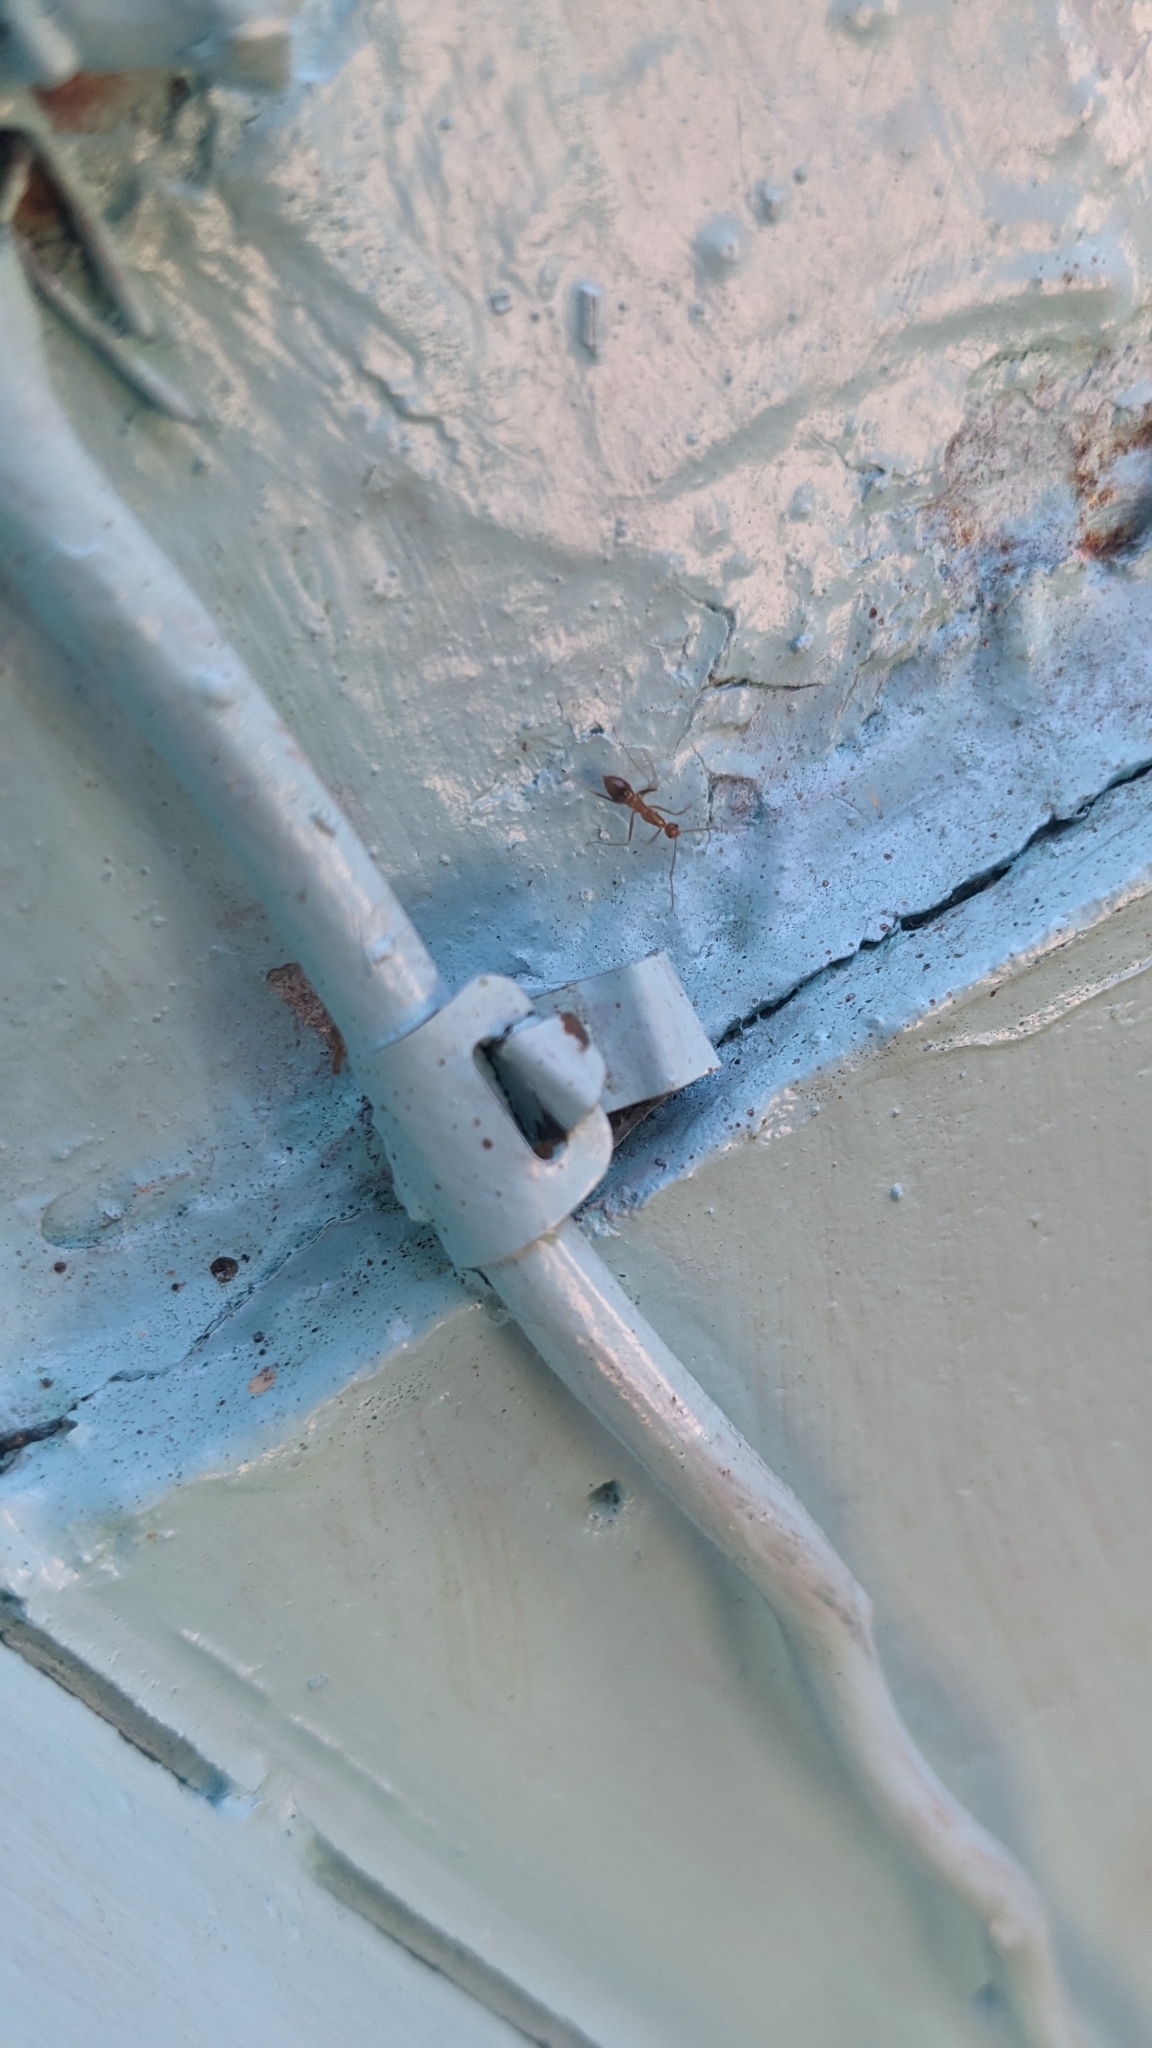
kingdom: Animalia
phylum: Arthropoda
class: Insecta
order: Hymenoptera
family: Formicidae
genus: Anoplolepis
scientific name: Anoplolepis gracilipes
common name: Ant
